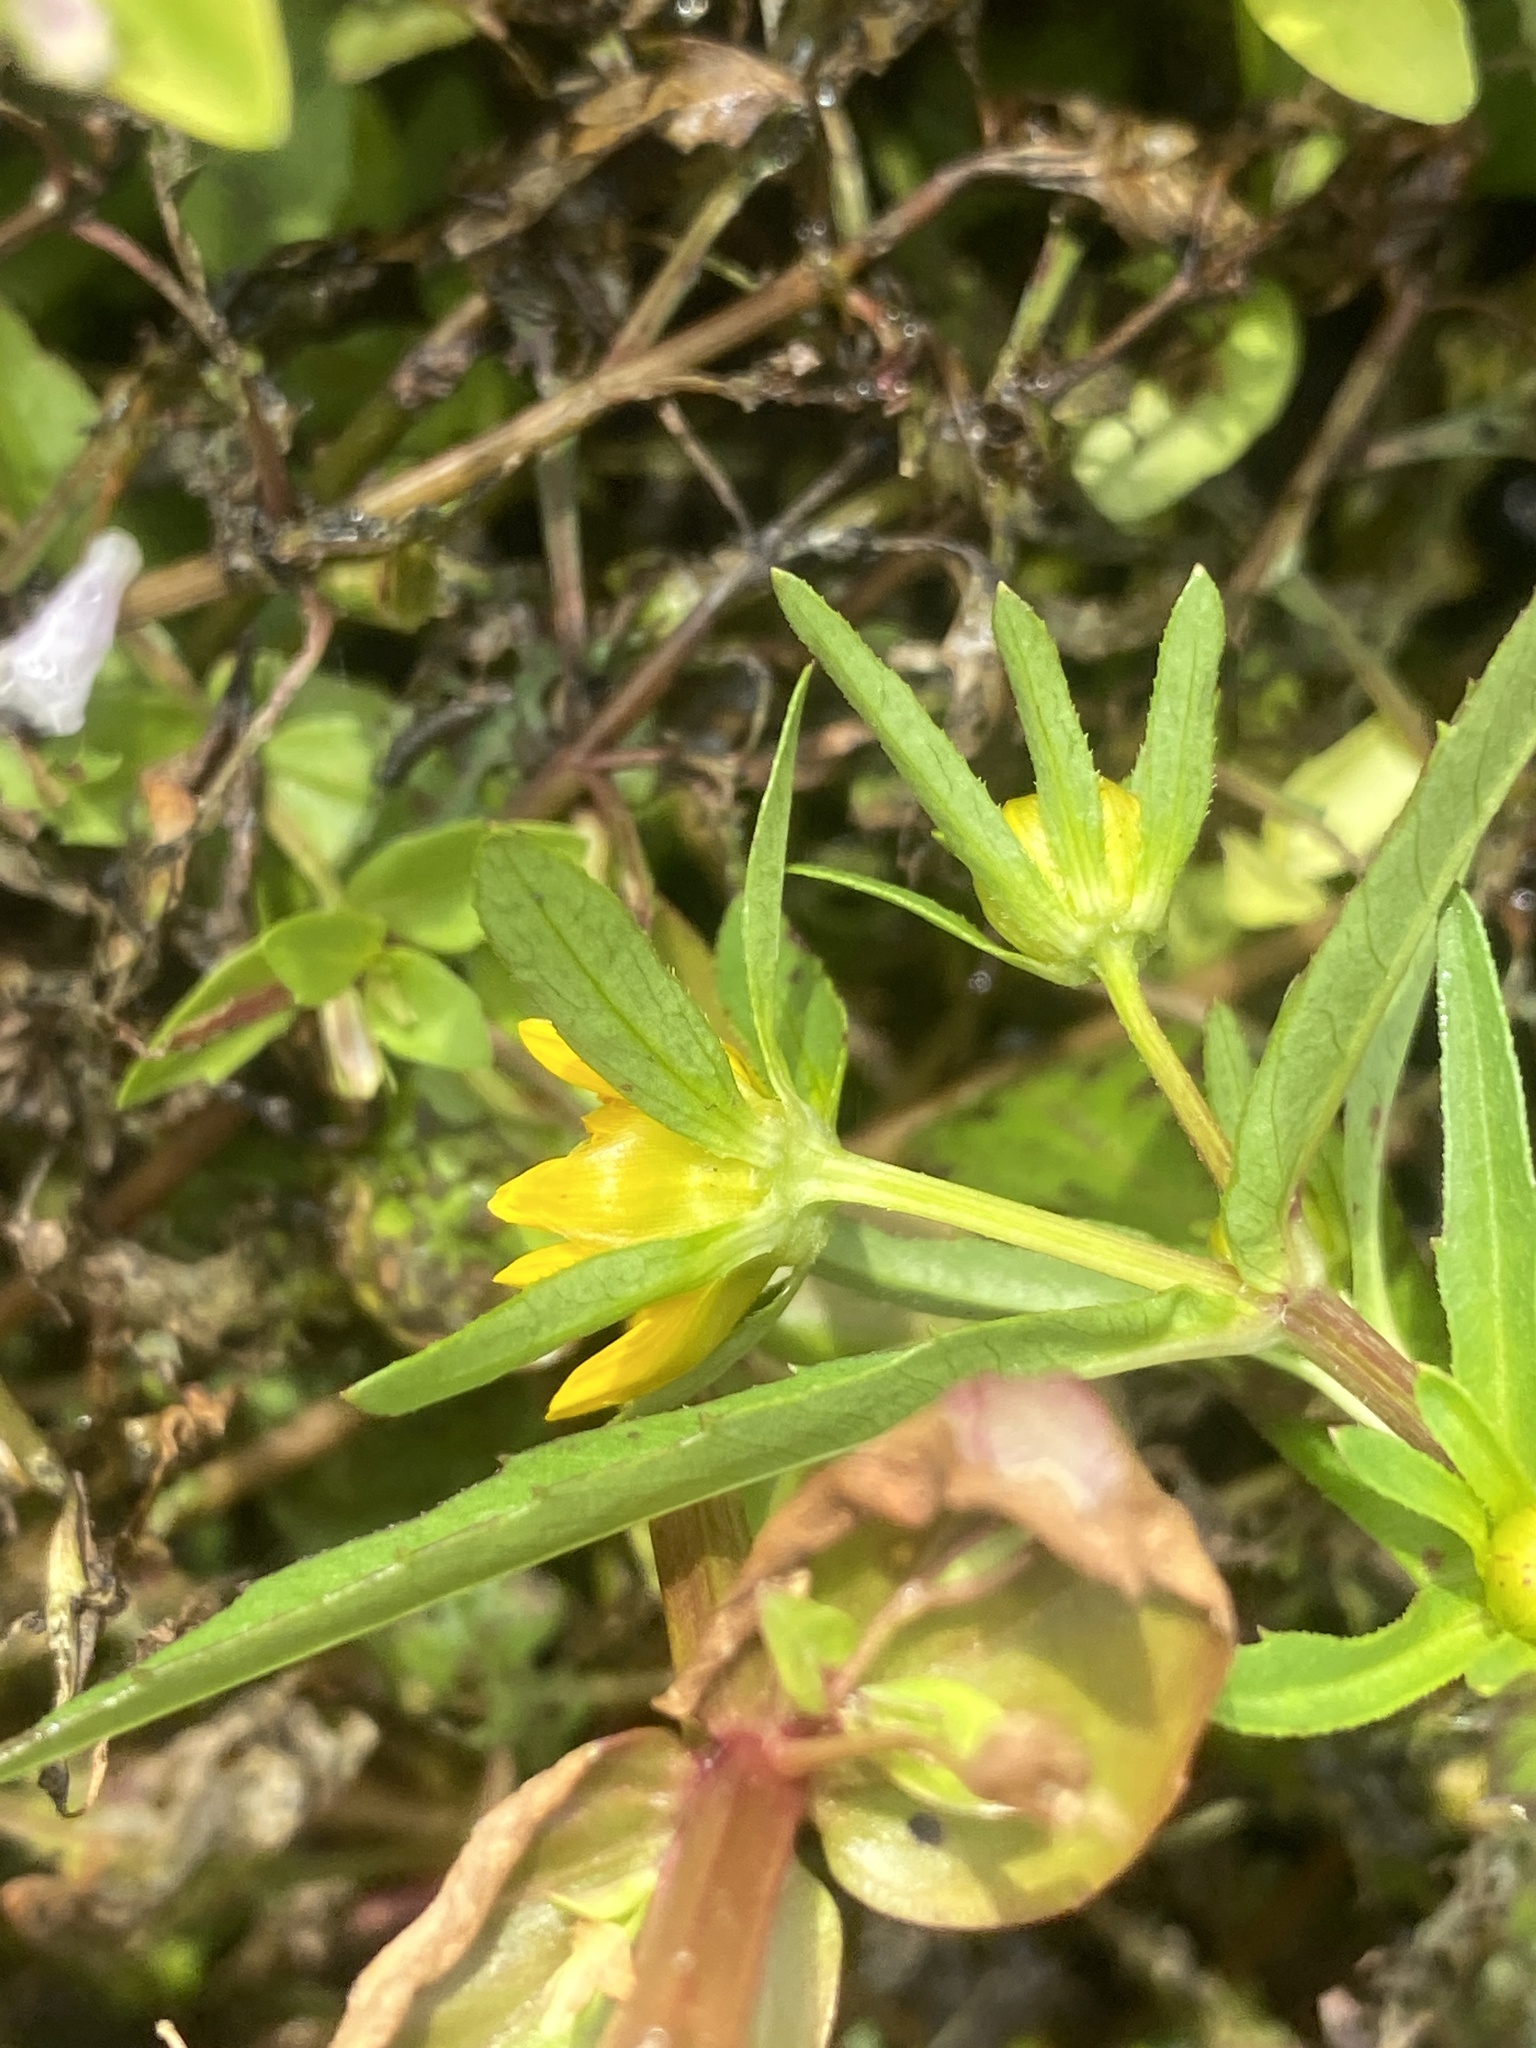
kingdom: Plantae
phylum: Tracheophyta
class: Magnoliopsida
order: Asterales
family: Asteraceae
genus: Bidens
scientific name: Bidens cernua
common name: Nodding bur-marigold
